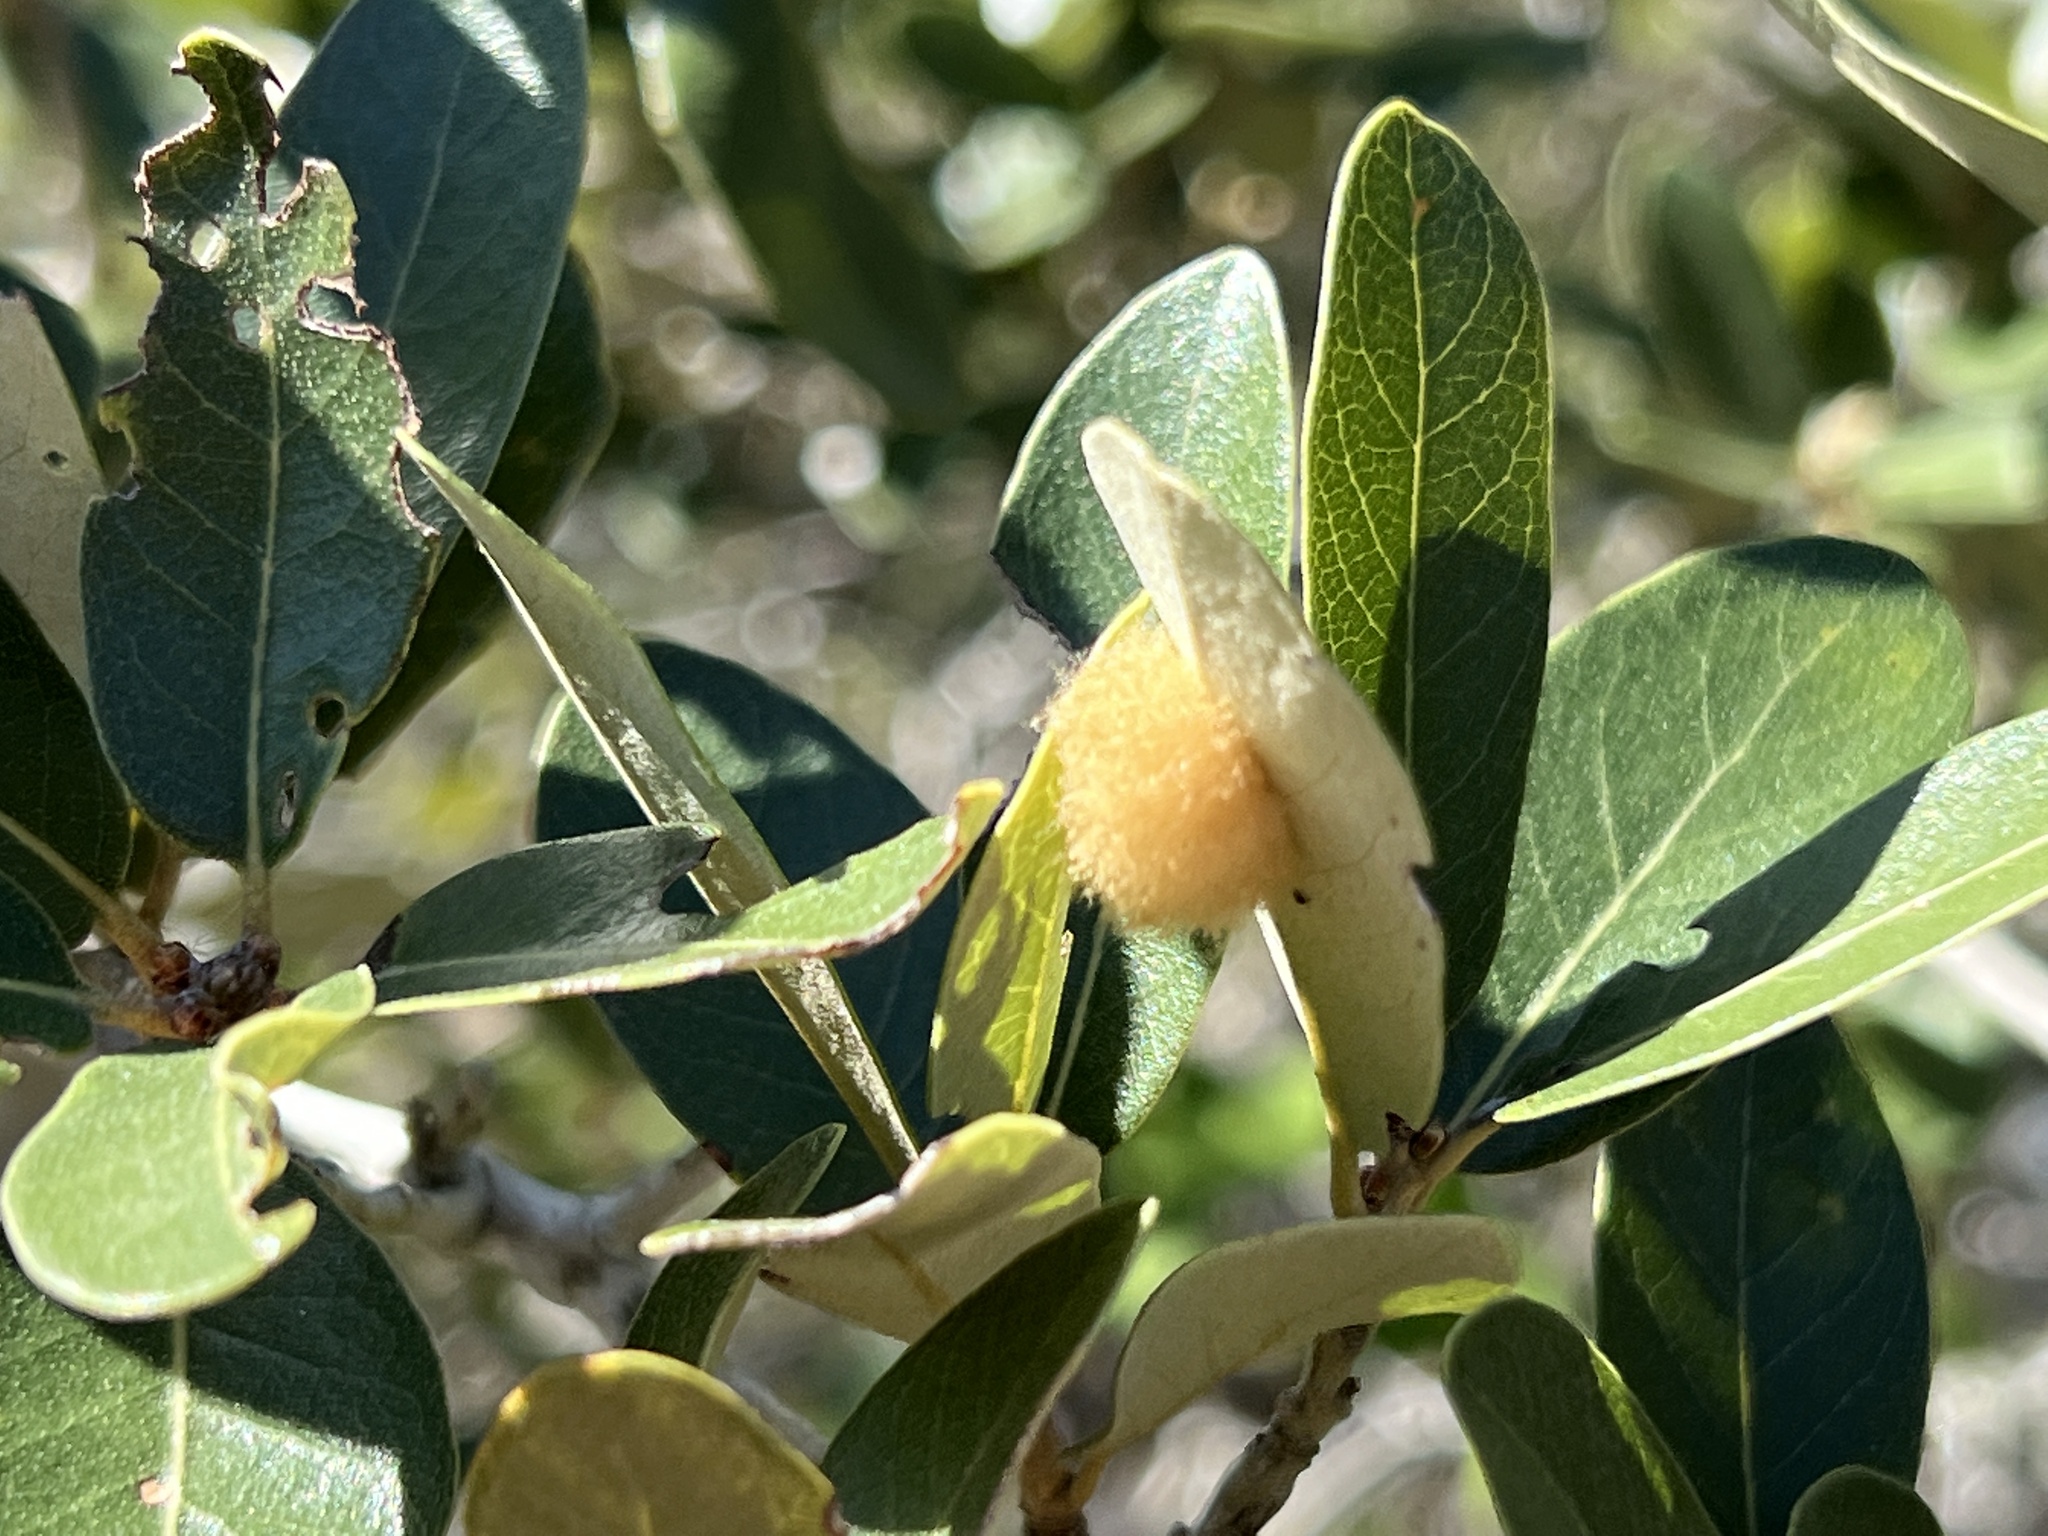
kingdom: Animalia
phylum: Arthropoda
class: Insecta
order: Hymenoptera
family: Cynipidae
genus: Andricus
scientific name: Andricus Druon quercuslanigerum
